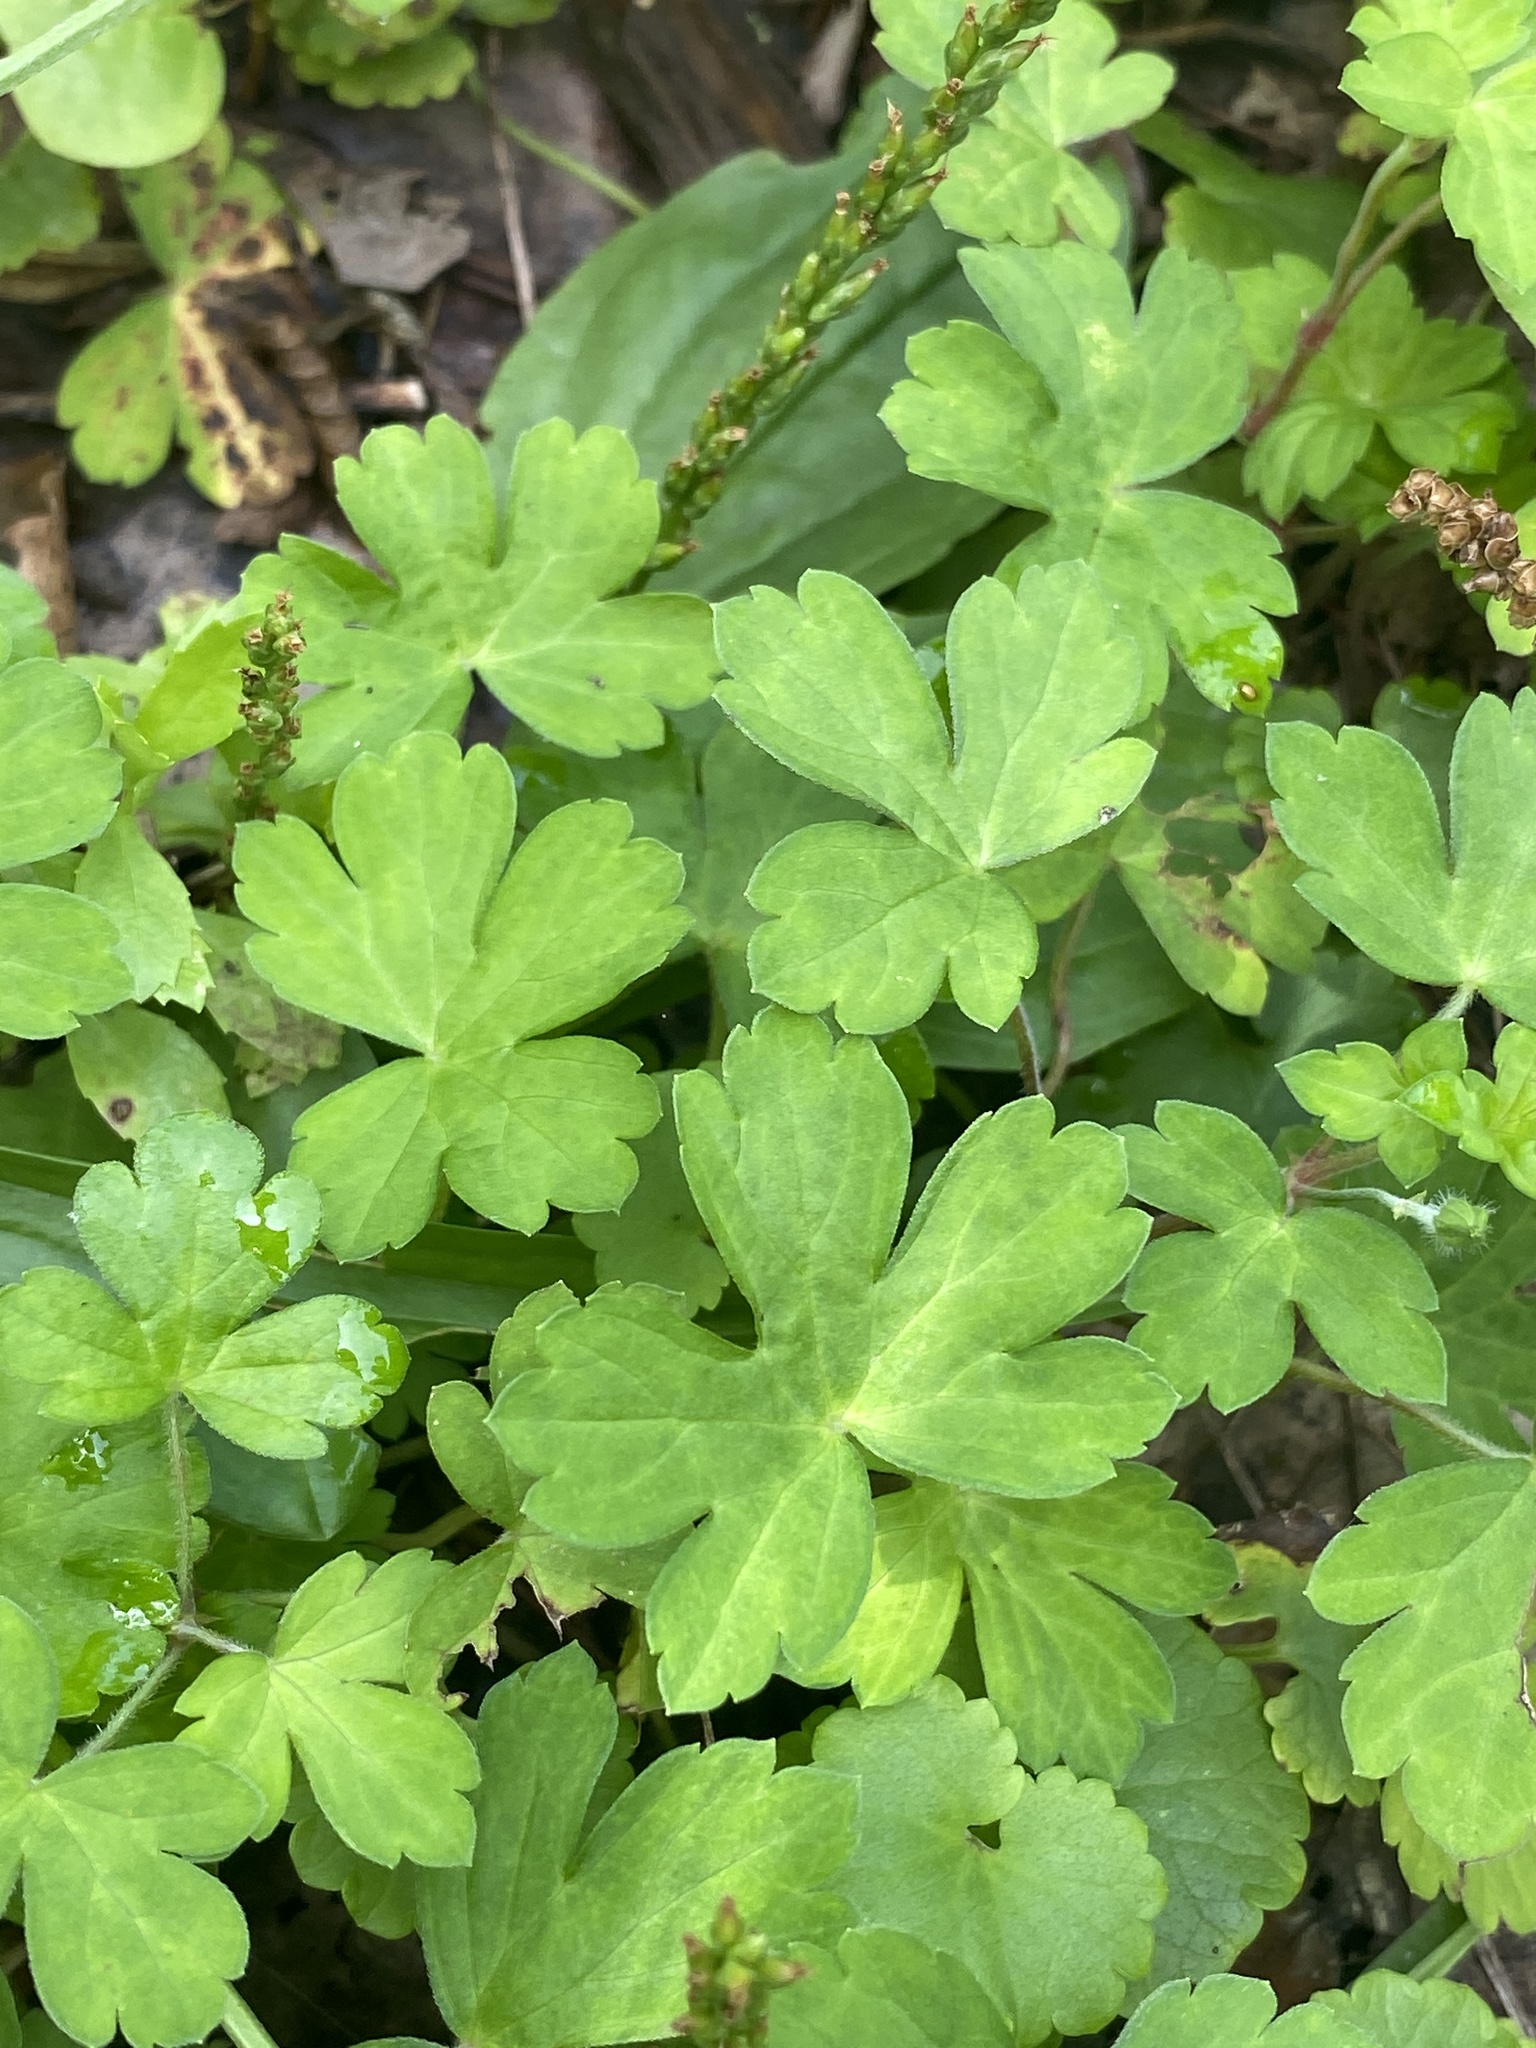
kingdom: Plantae
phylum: Tracheophyta
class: Magnoliopsida
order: Geraniales
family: Geraniaceae
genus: Geranium
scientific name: Geranium thunbergii
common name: Dewdrop crane's-bill
